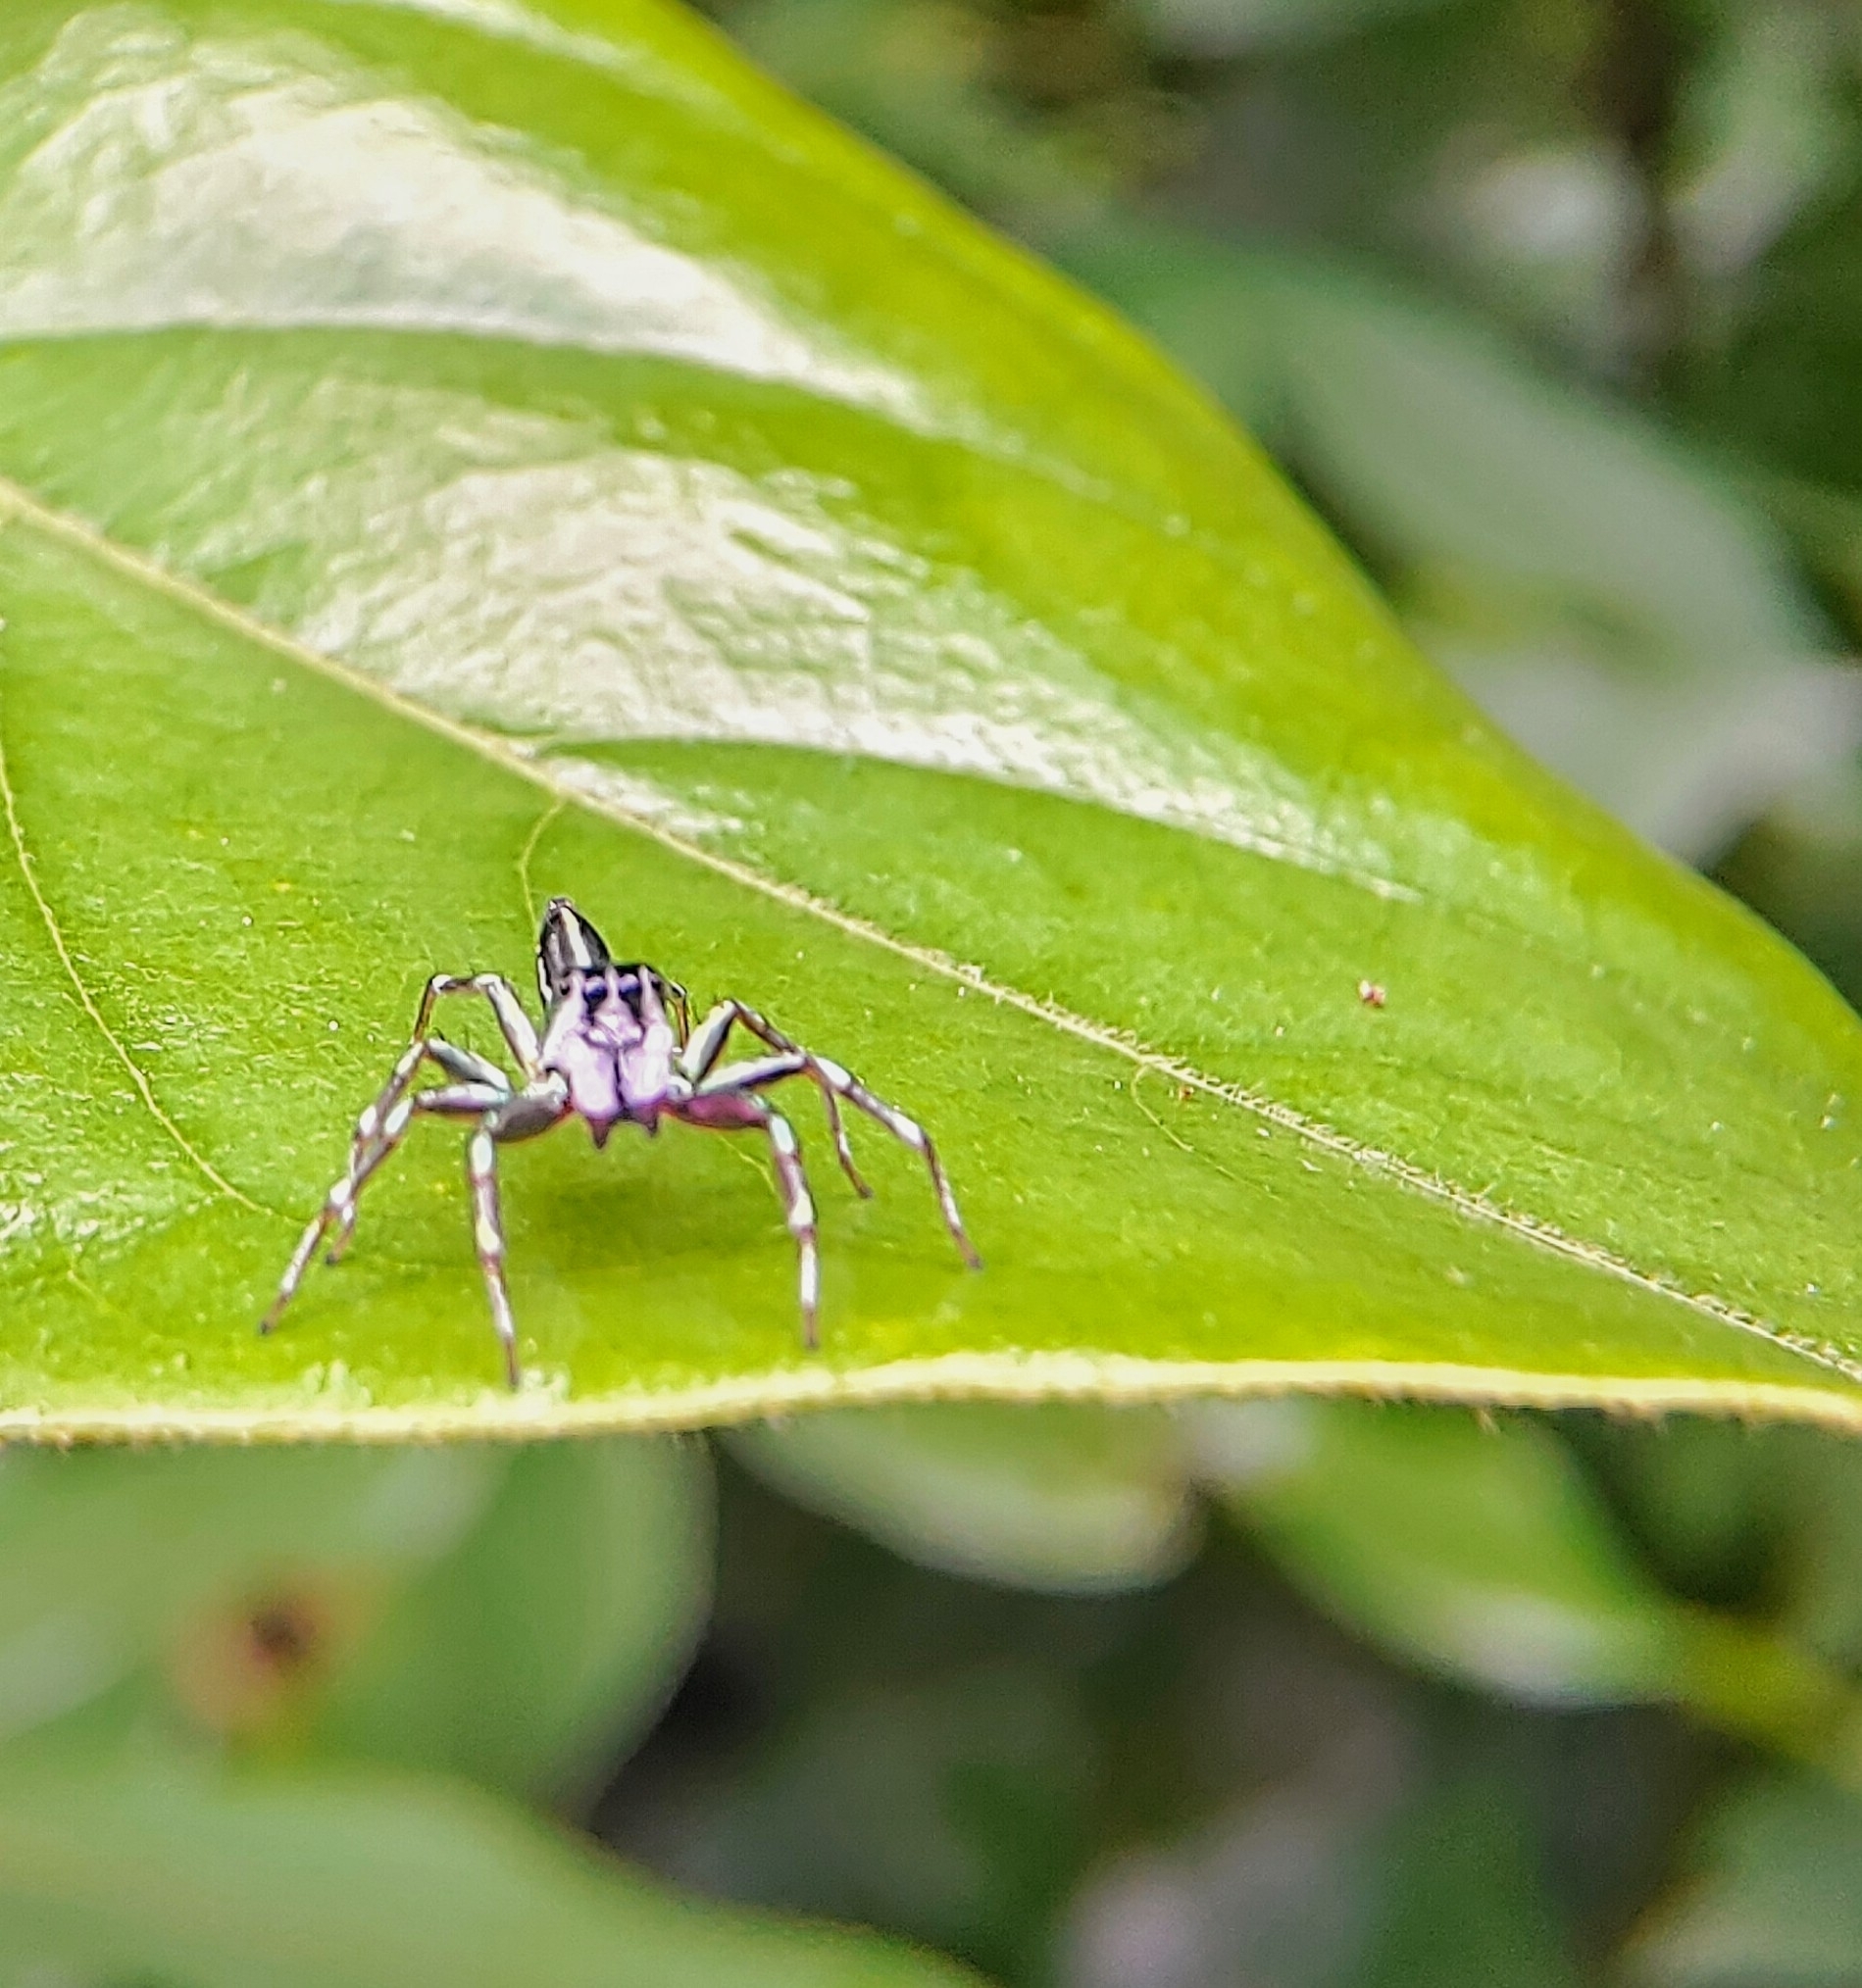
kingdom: Animalia
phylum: Arthropoda
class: Arachnida
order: Araneae
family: Salticidae
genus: Cosmophasis
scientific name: Cosmophasis thalassina
